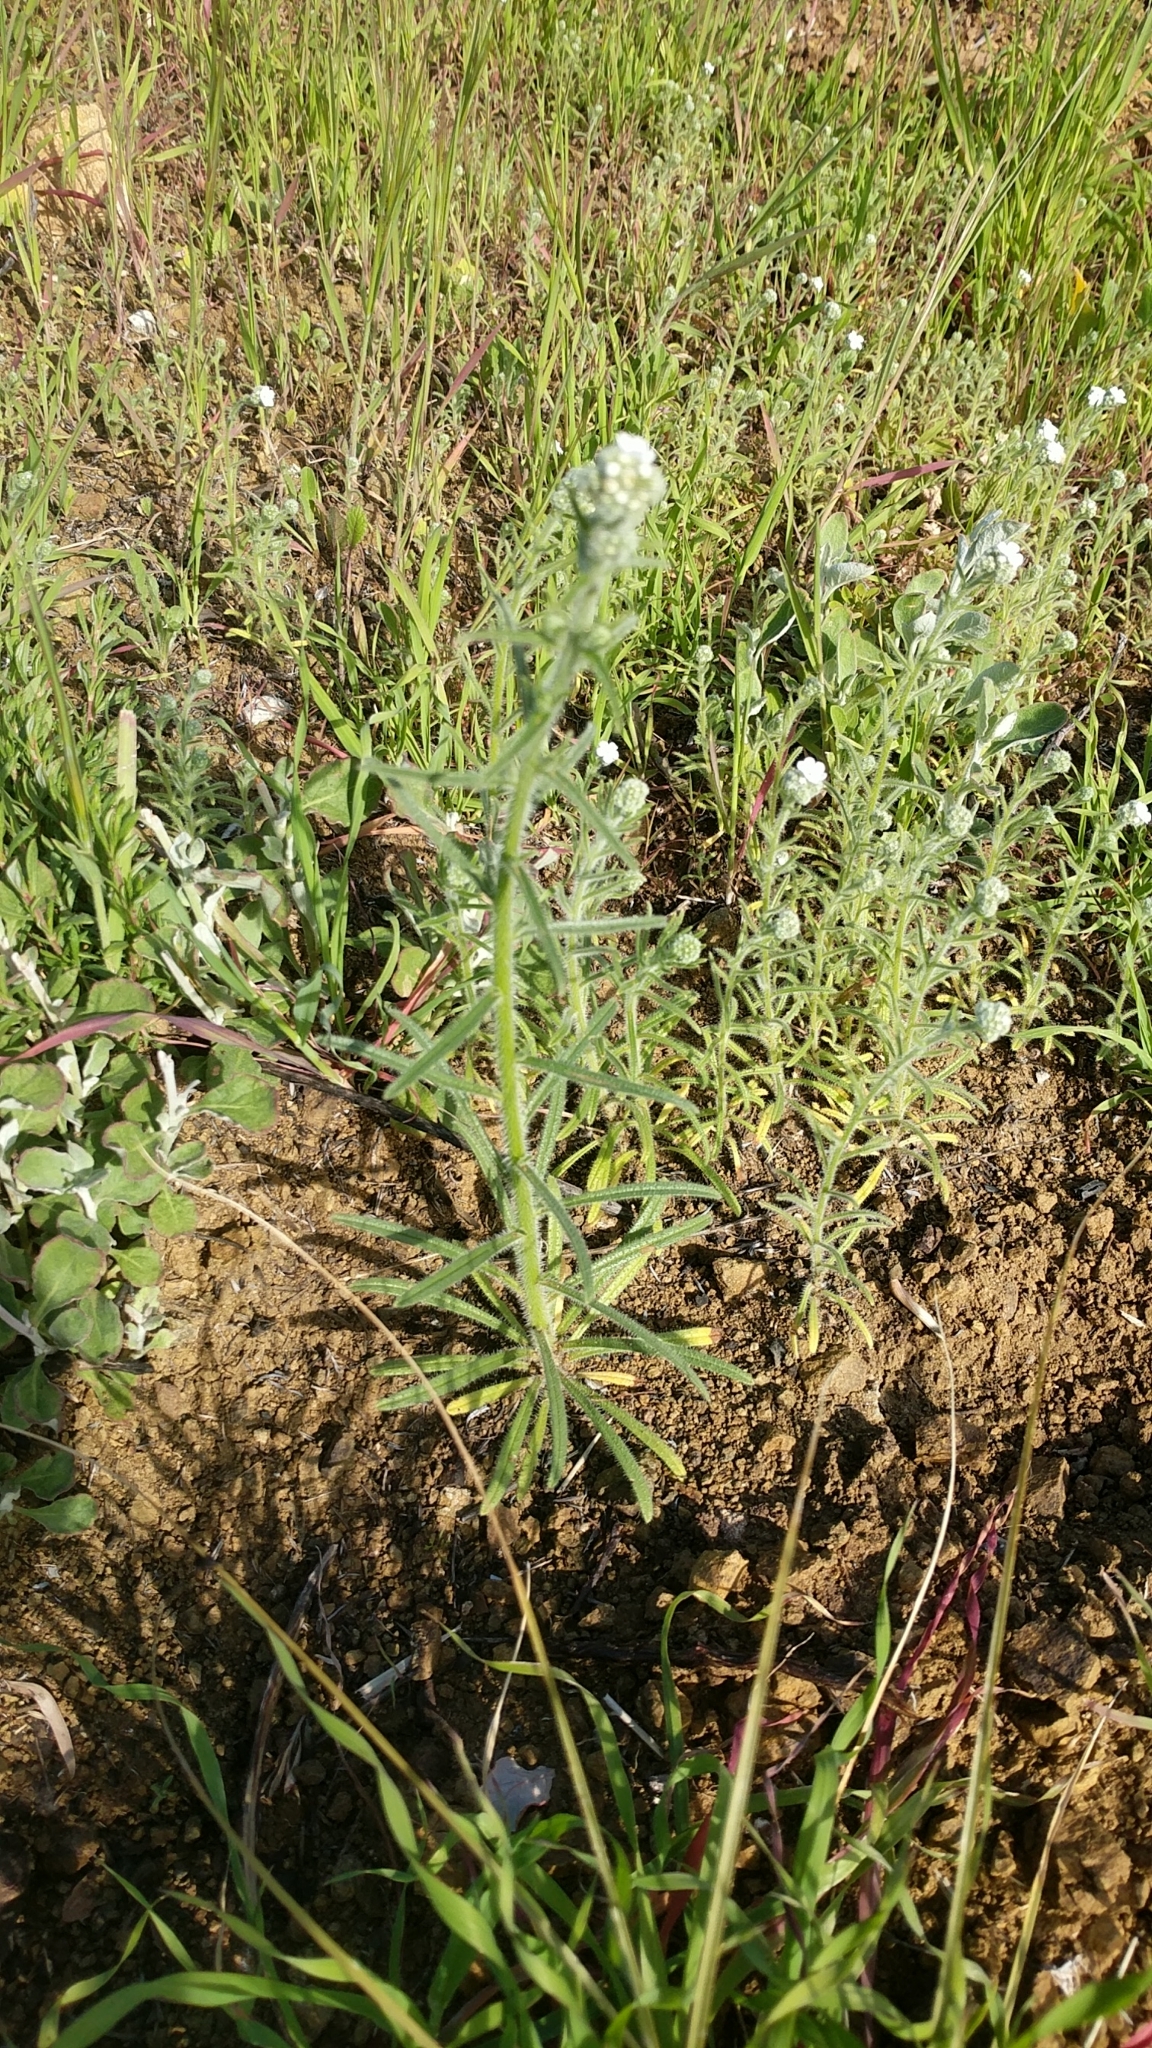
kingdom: Plantae
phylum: Tracheophyta
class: Magnoliopsida
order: Boraginales
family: Boraginaceae
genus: Cryptantha
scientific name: Cryptantha intermedia
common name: Clearwater cryptantha
